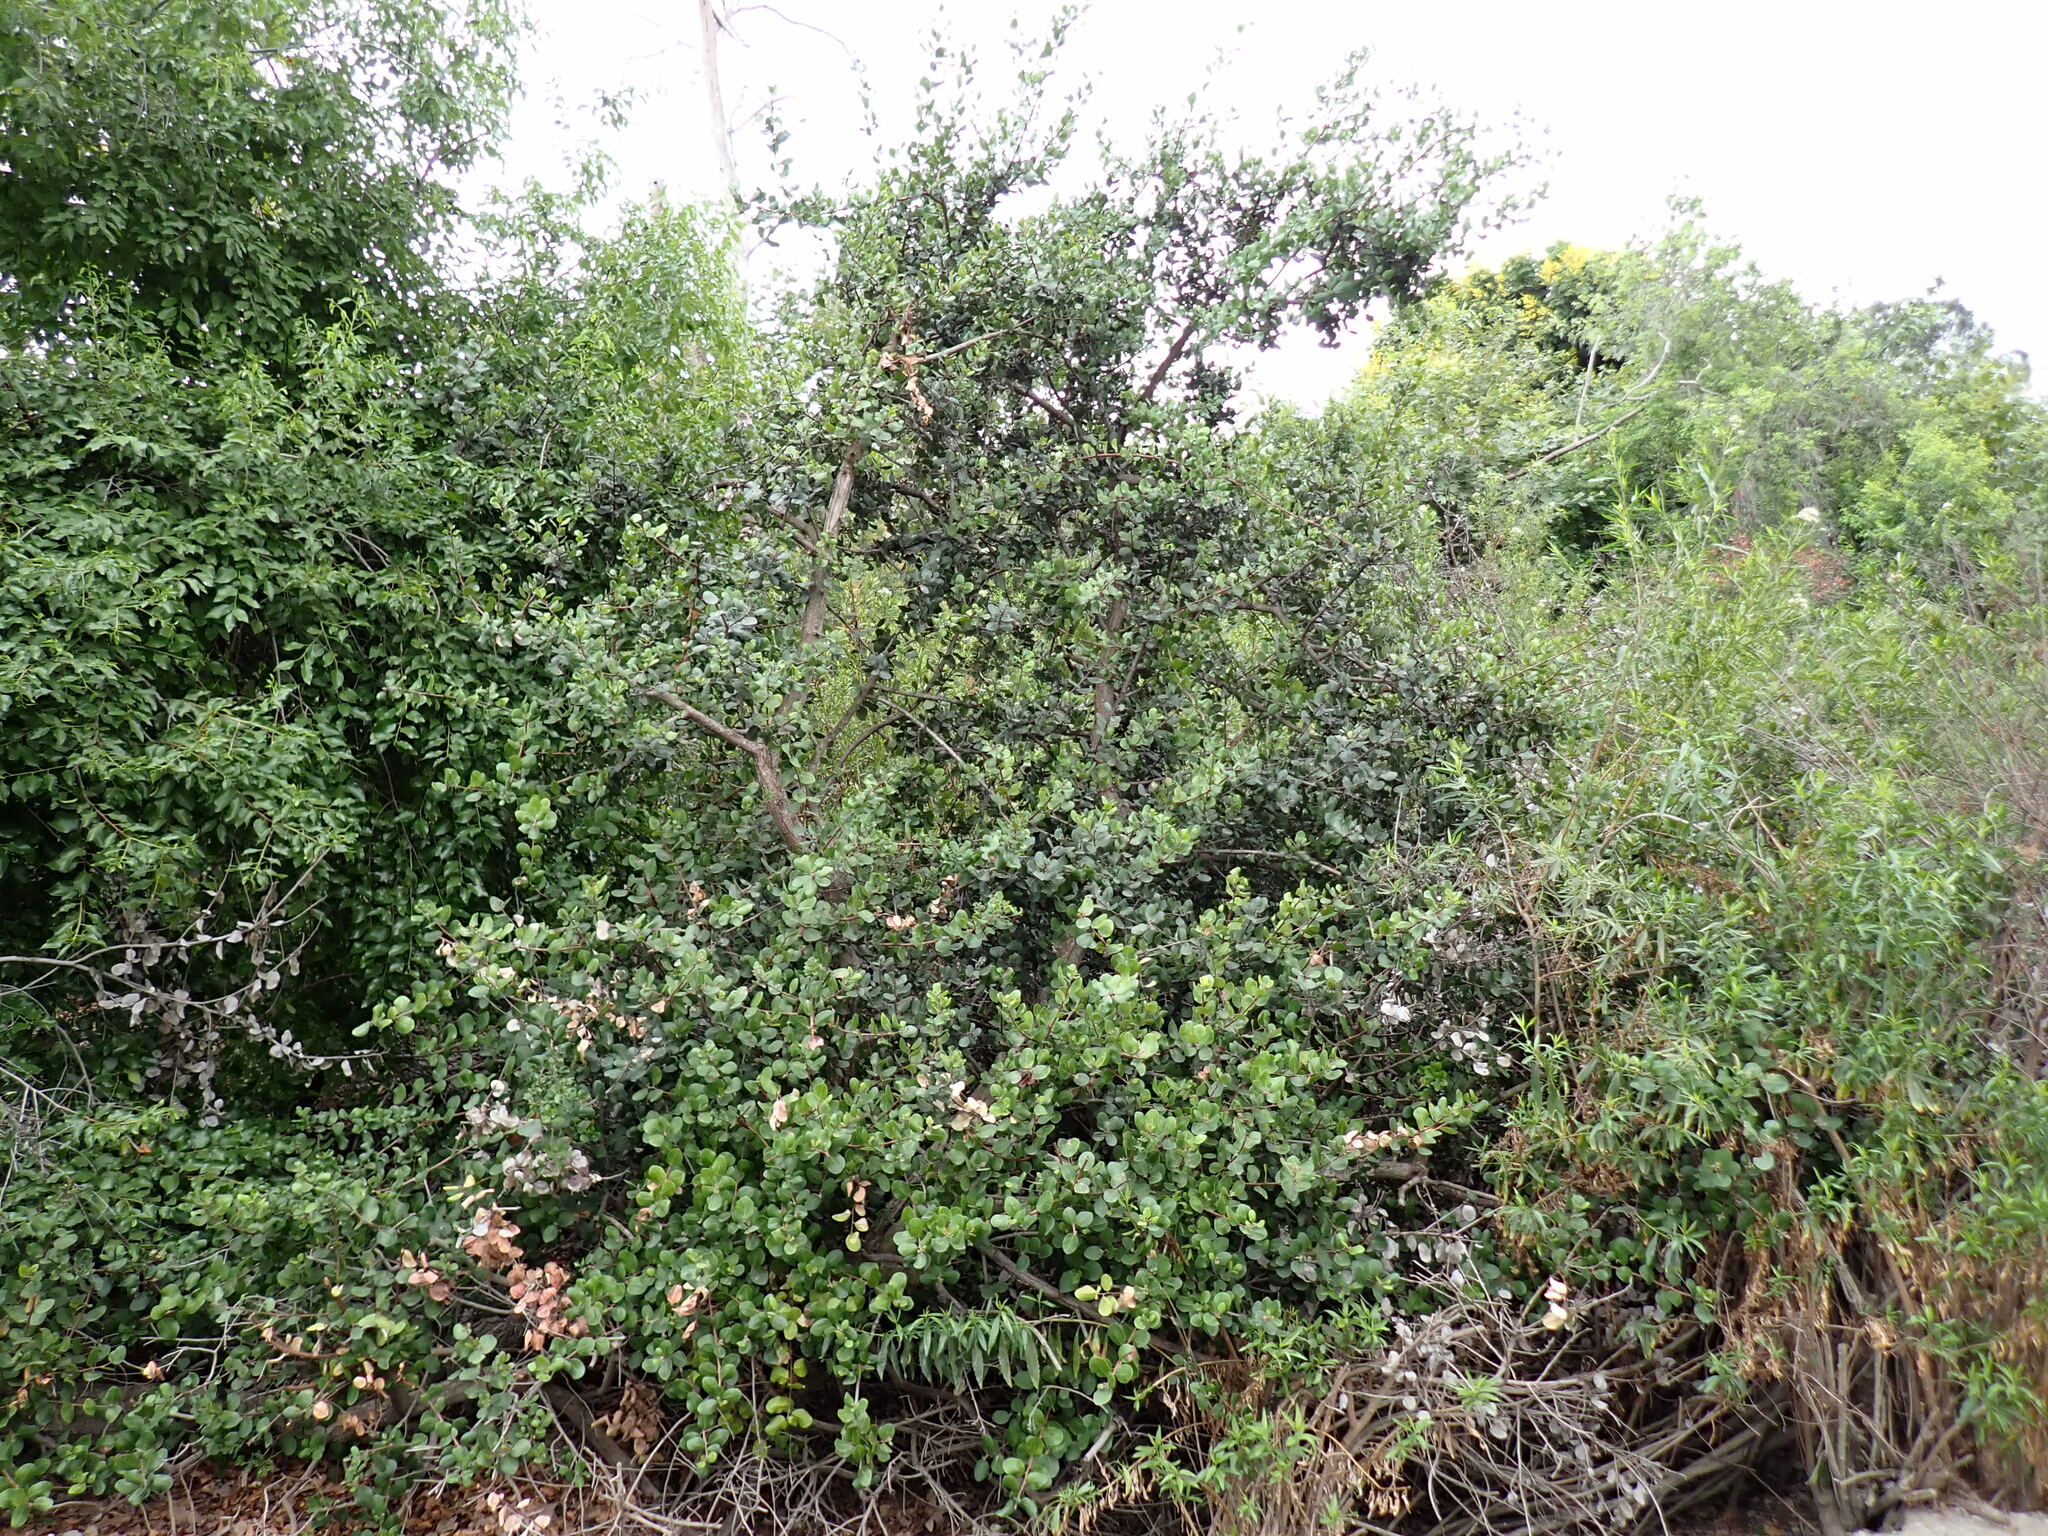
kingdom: Plantae
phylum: Tracheophyta
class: Magnoliopsida
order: Sapindales
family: Anacardiaceae
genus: Rhus
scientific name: Rhus integrifolia
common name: Lemonade sumac
